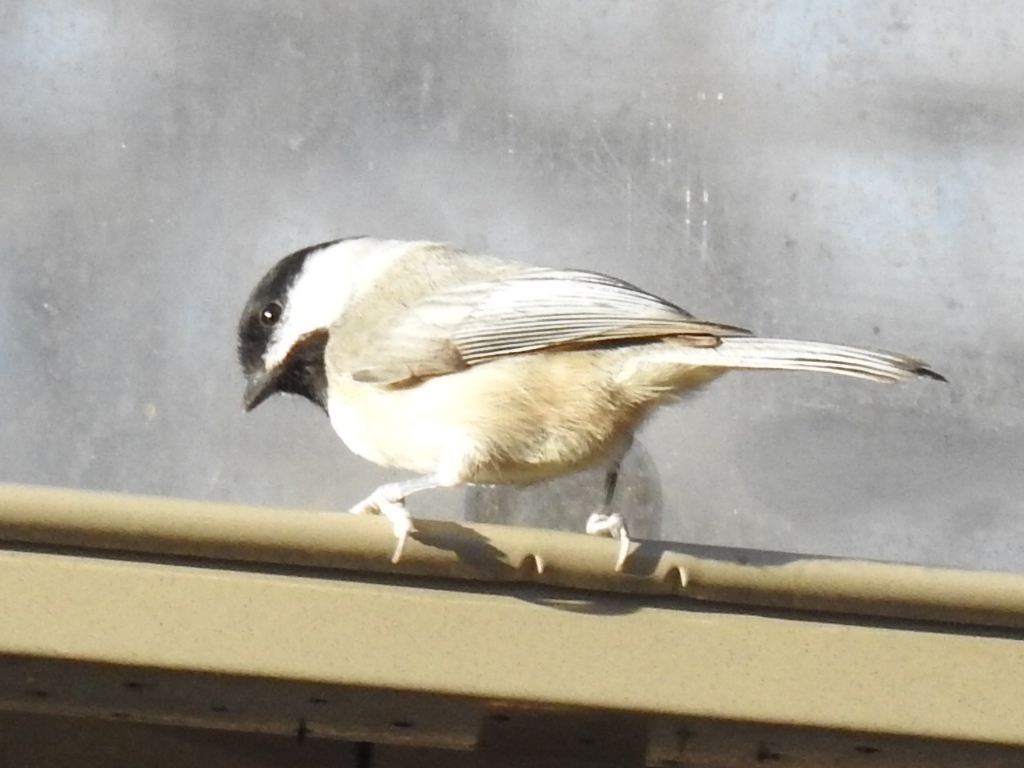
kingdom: Animalia
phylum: Chordata
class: Aves
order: Passeriformes
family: Paridae
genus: Poecile
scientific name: Poecile carolinensis
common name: Carolina chickadee
